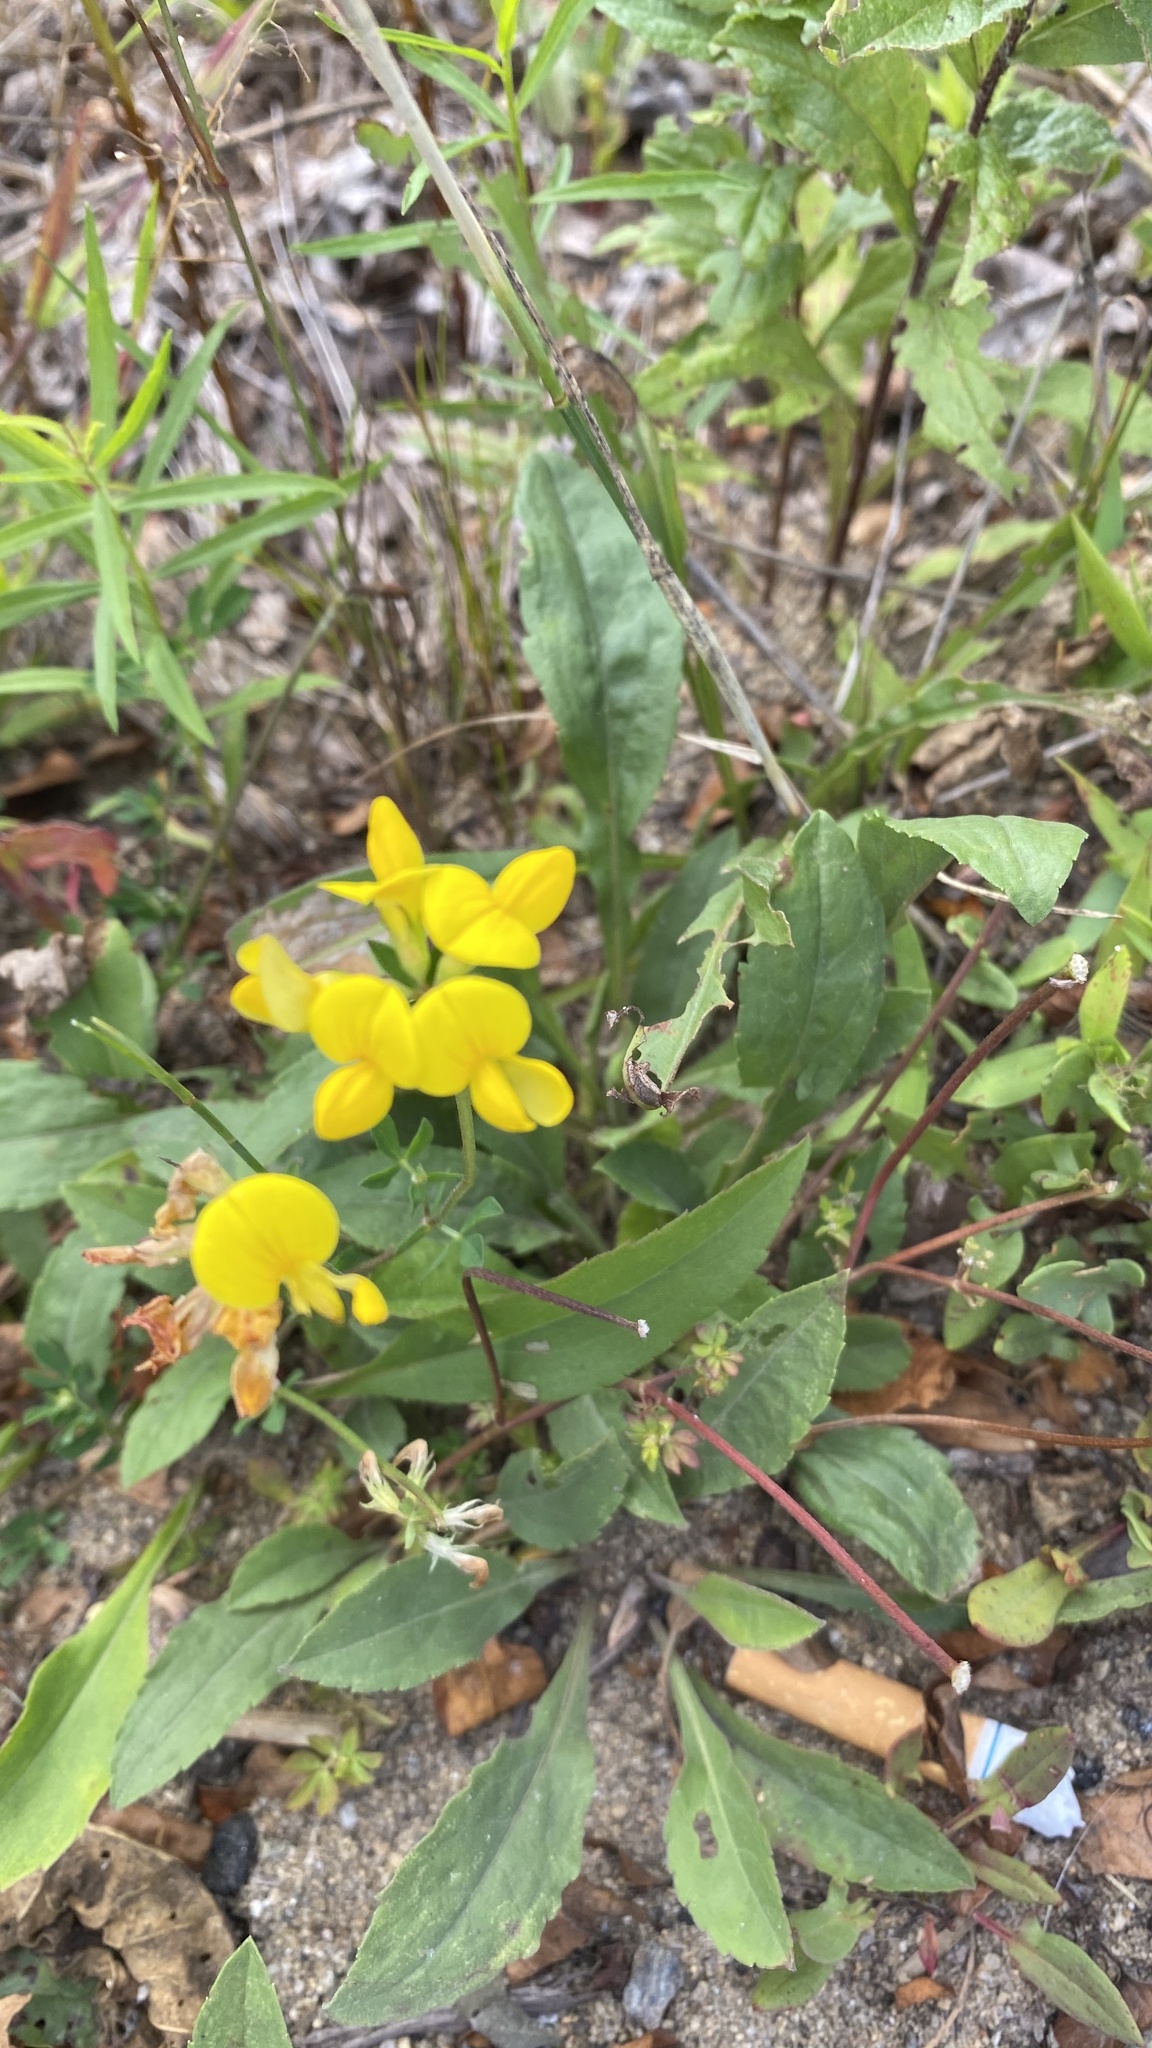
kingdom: Plantae
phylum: Tracheophyta
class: Magnoliopsida
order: Fabales
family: Fabaceae
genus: Lotus
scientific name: Lotus corniculatus
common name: Common bird's-foot-trefoil
